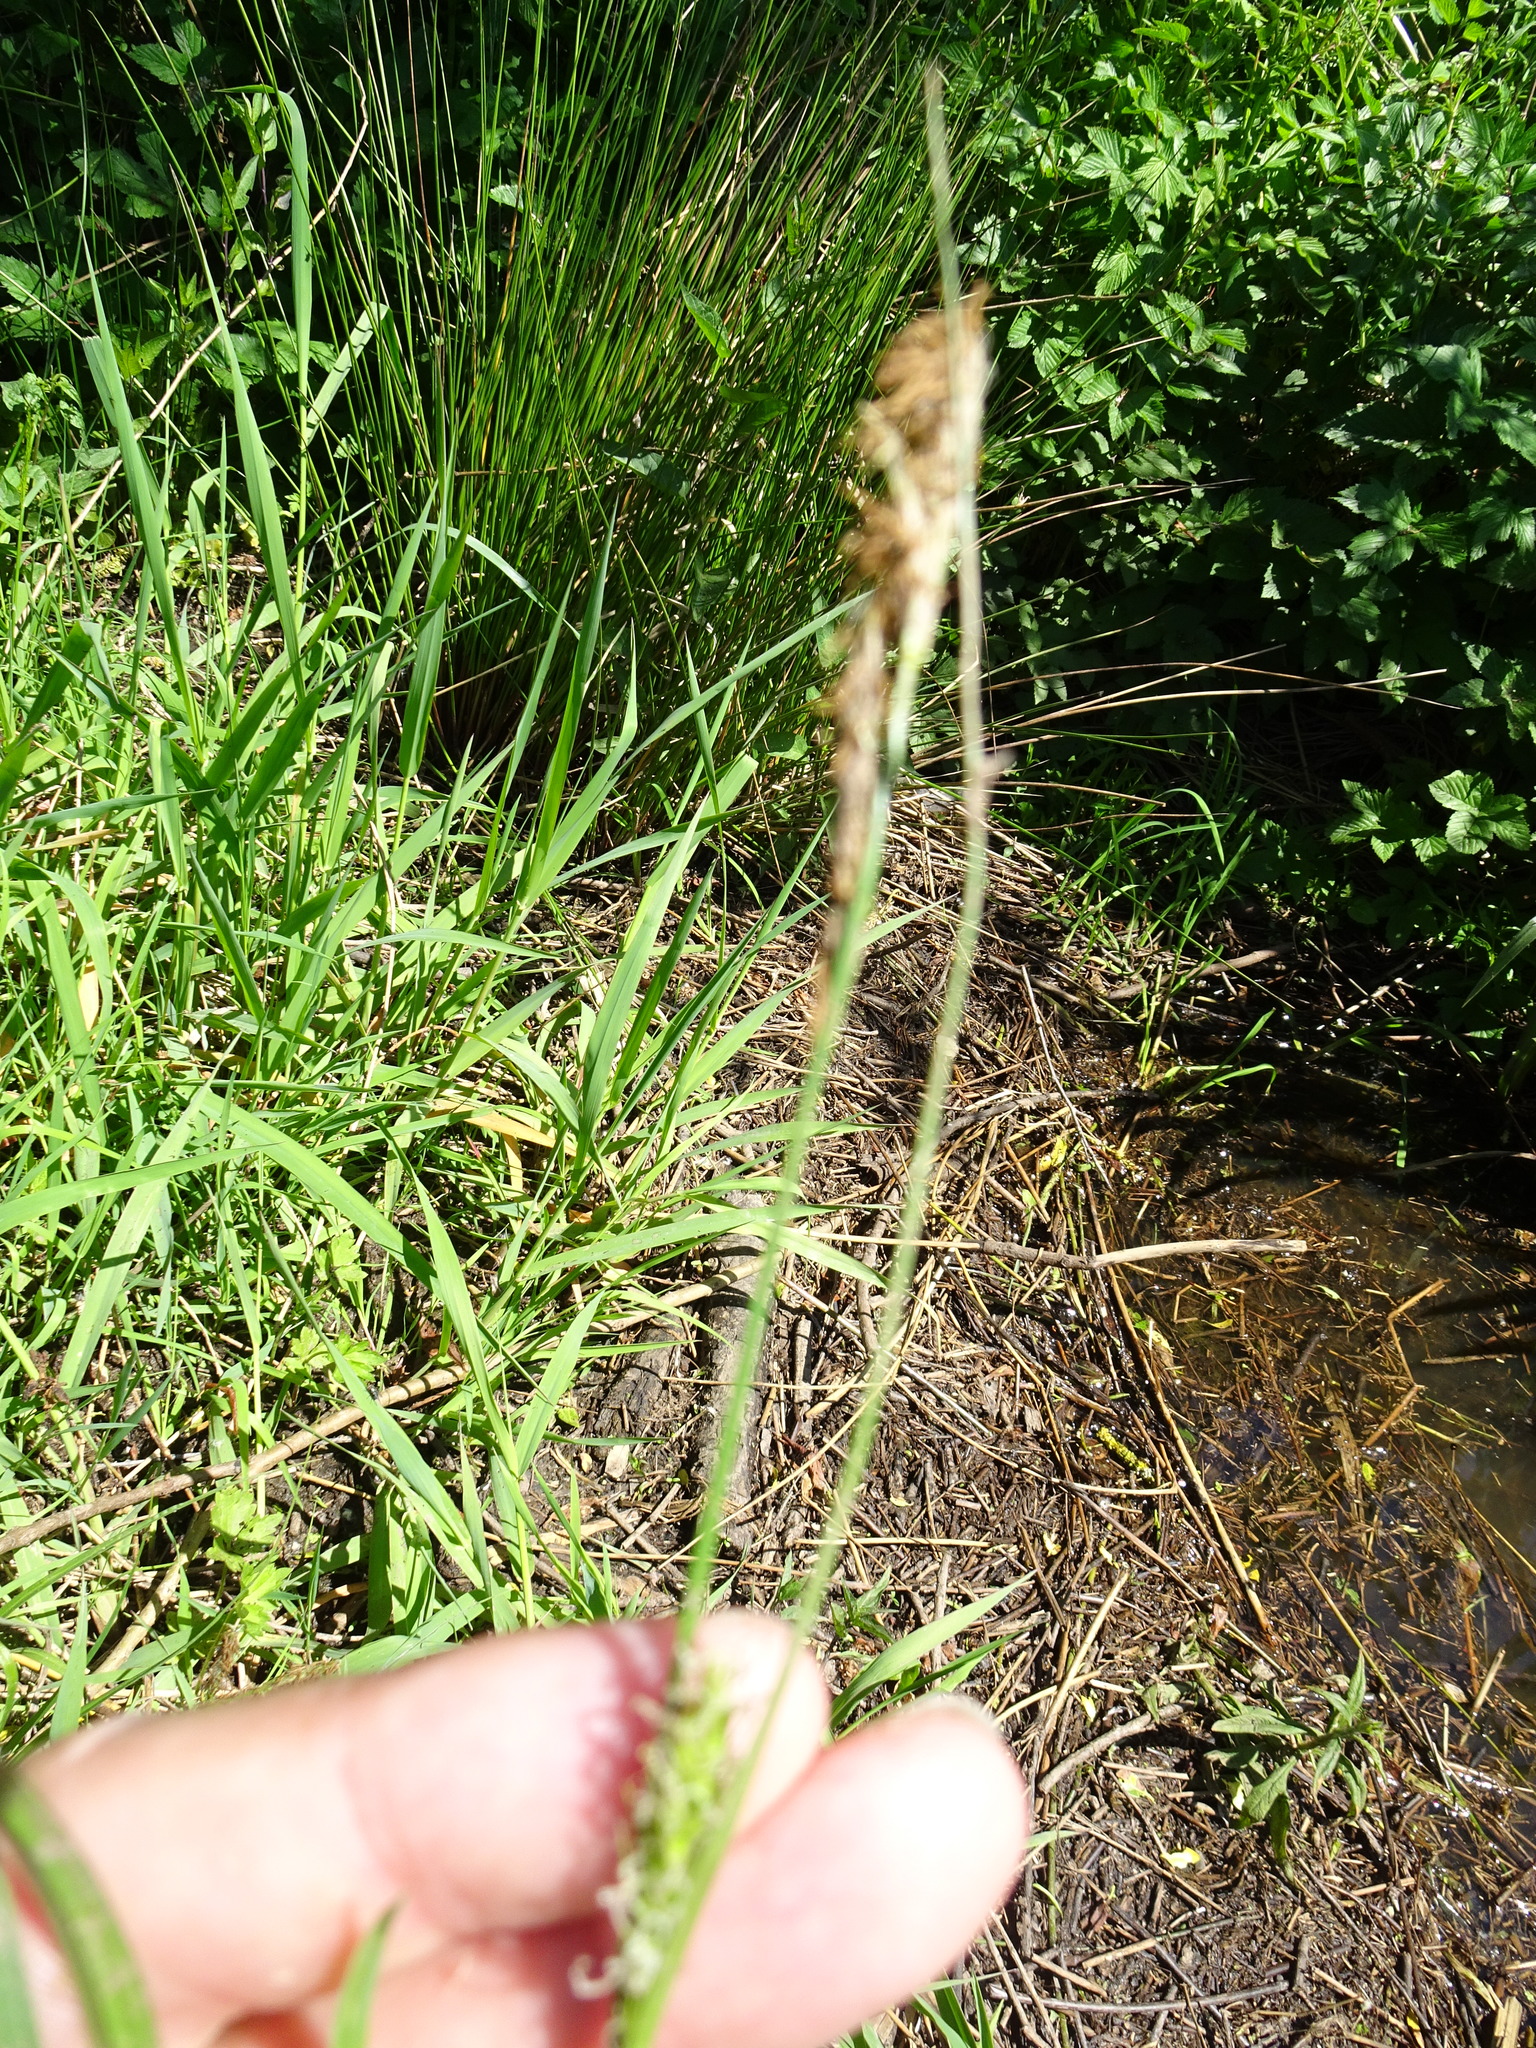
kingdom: Plantae
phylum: Tracheophyta
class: Liliopsida
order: Poales
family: Cyperaceae
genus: Carex
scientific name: Carex hirta
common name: Hairy sedge
